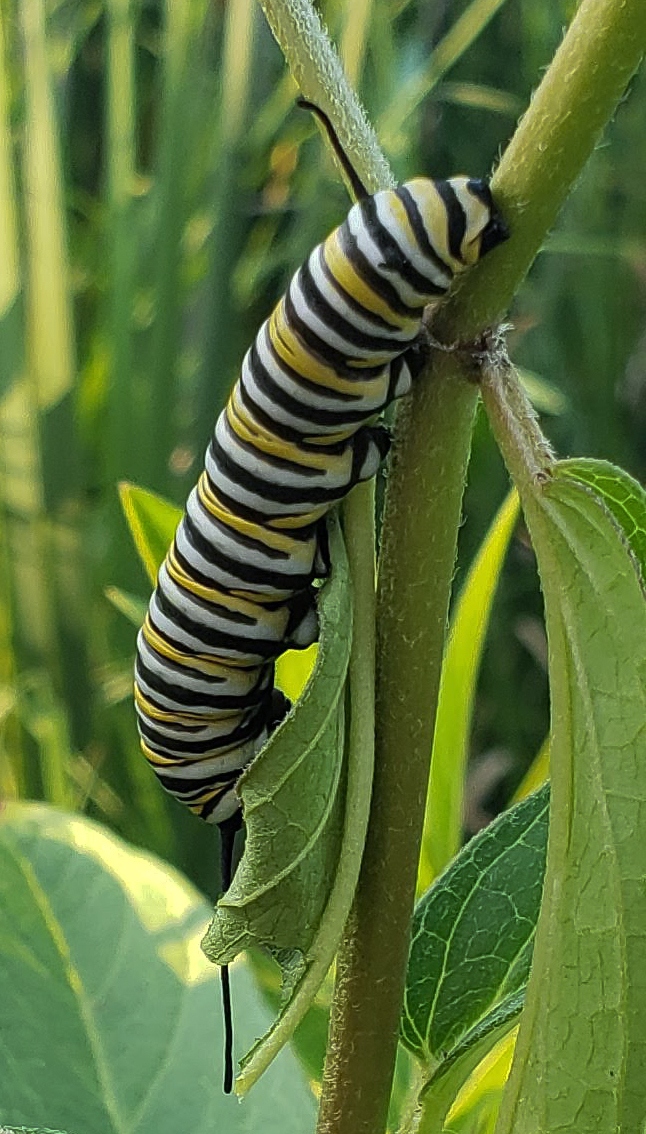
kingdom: Animalia
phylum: Arthropoda
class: Insecta
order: Lepidoptera
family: Nymphalidae
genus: Danaus
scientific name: Danaus plexippus
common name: Monarch
